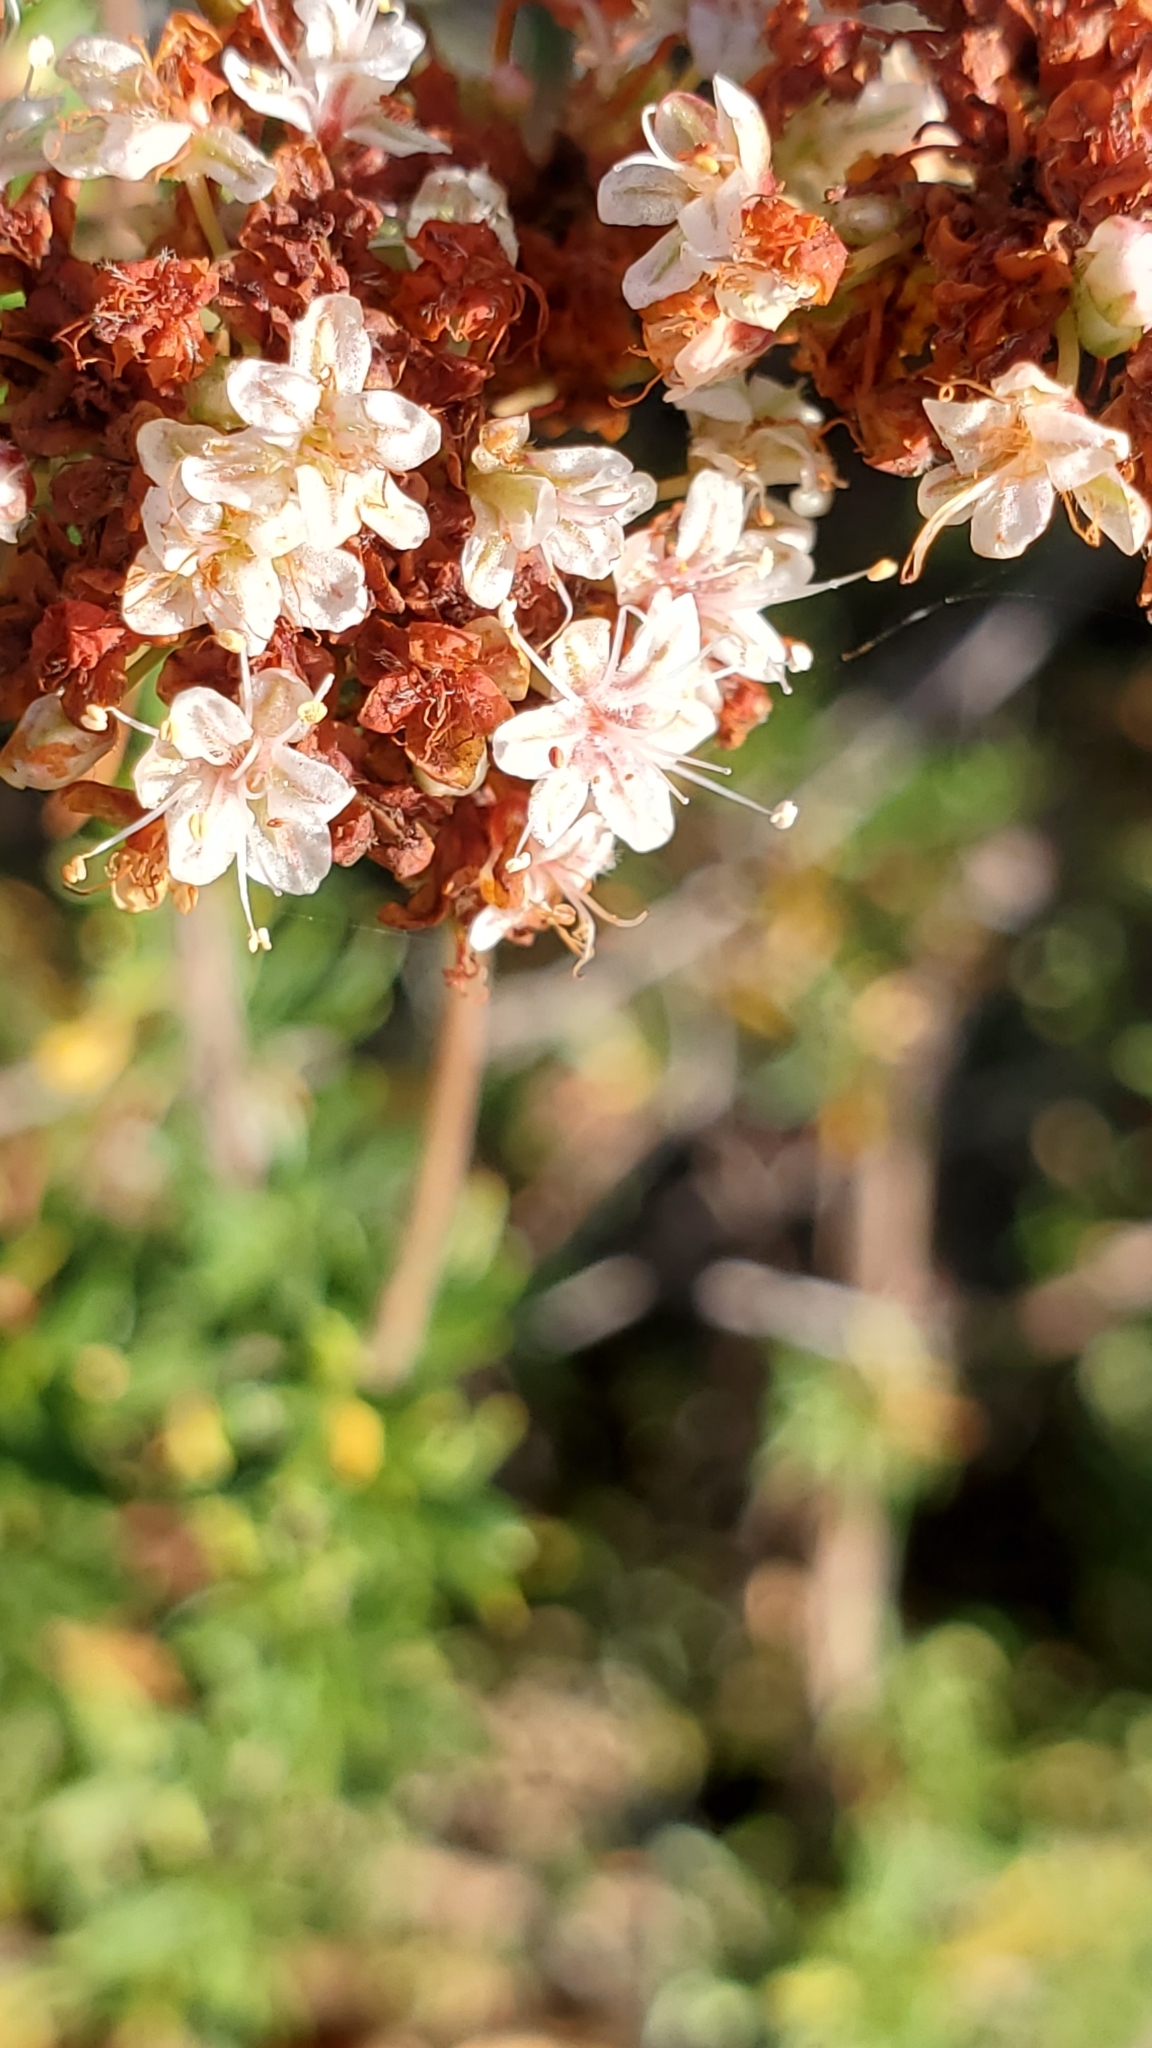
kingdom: Plantae
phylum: Tracheophyta
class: Magnoliopsida
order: Caryophyllales
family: Polygonaceae
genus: Eriogonum
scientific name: Eriogonum fasciculatum
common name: California wild buckwheat
